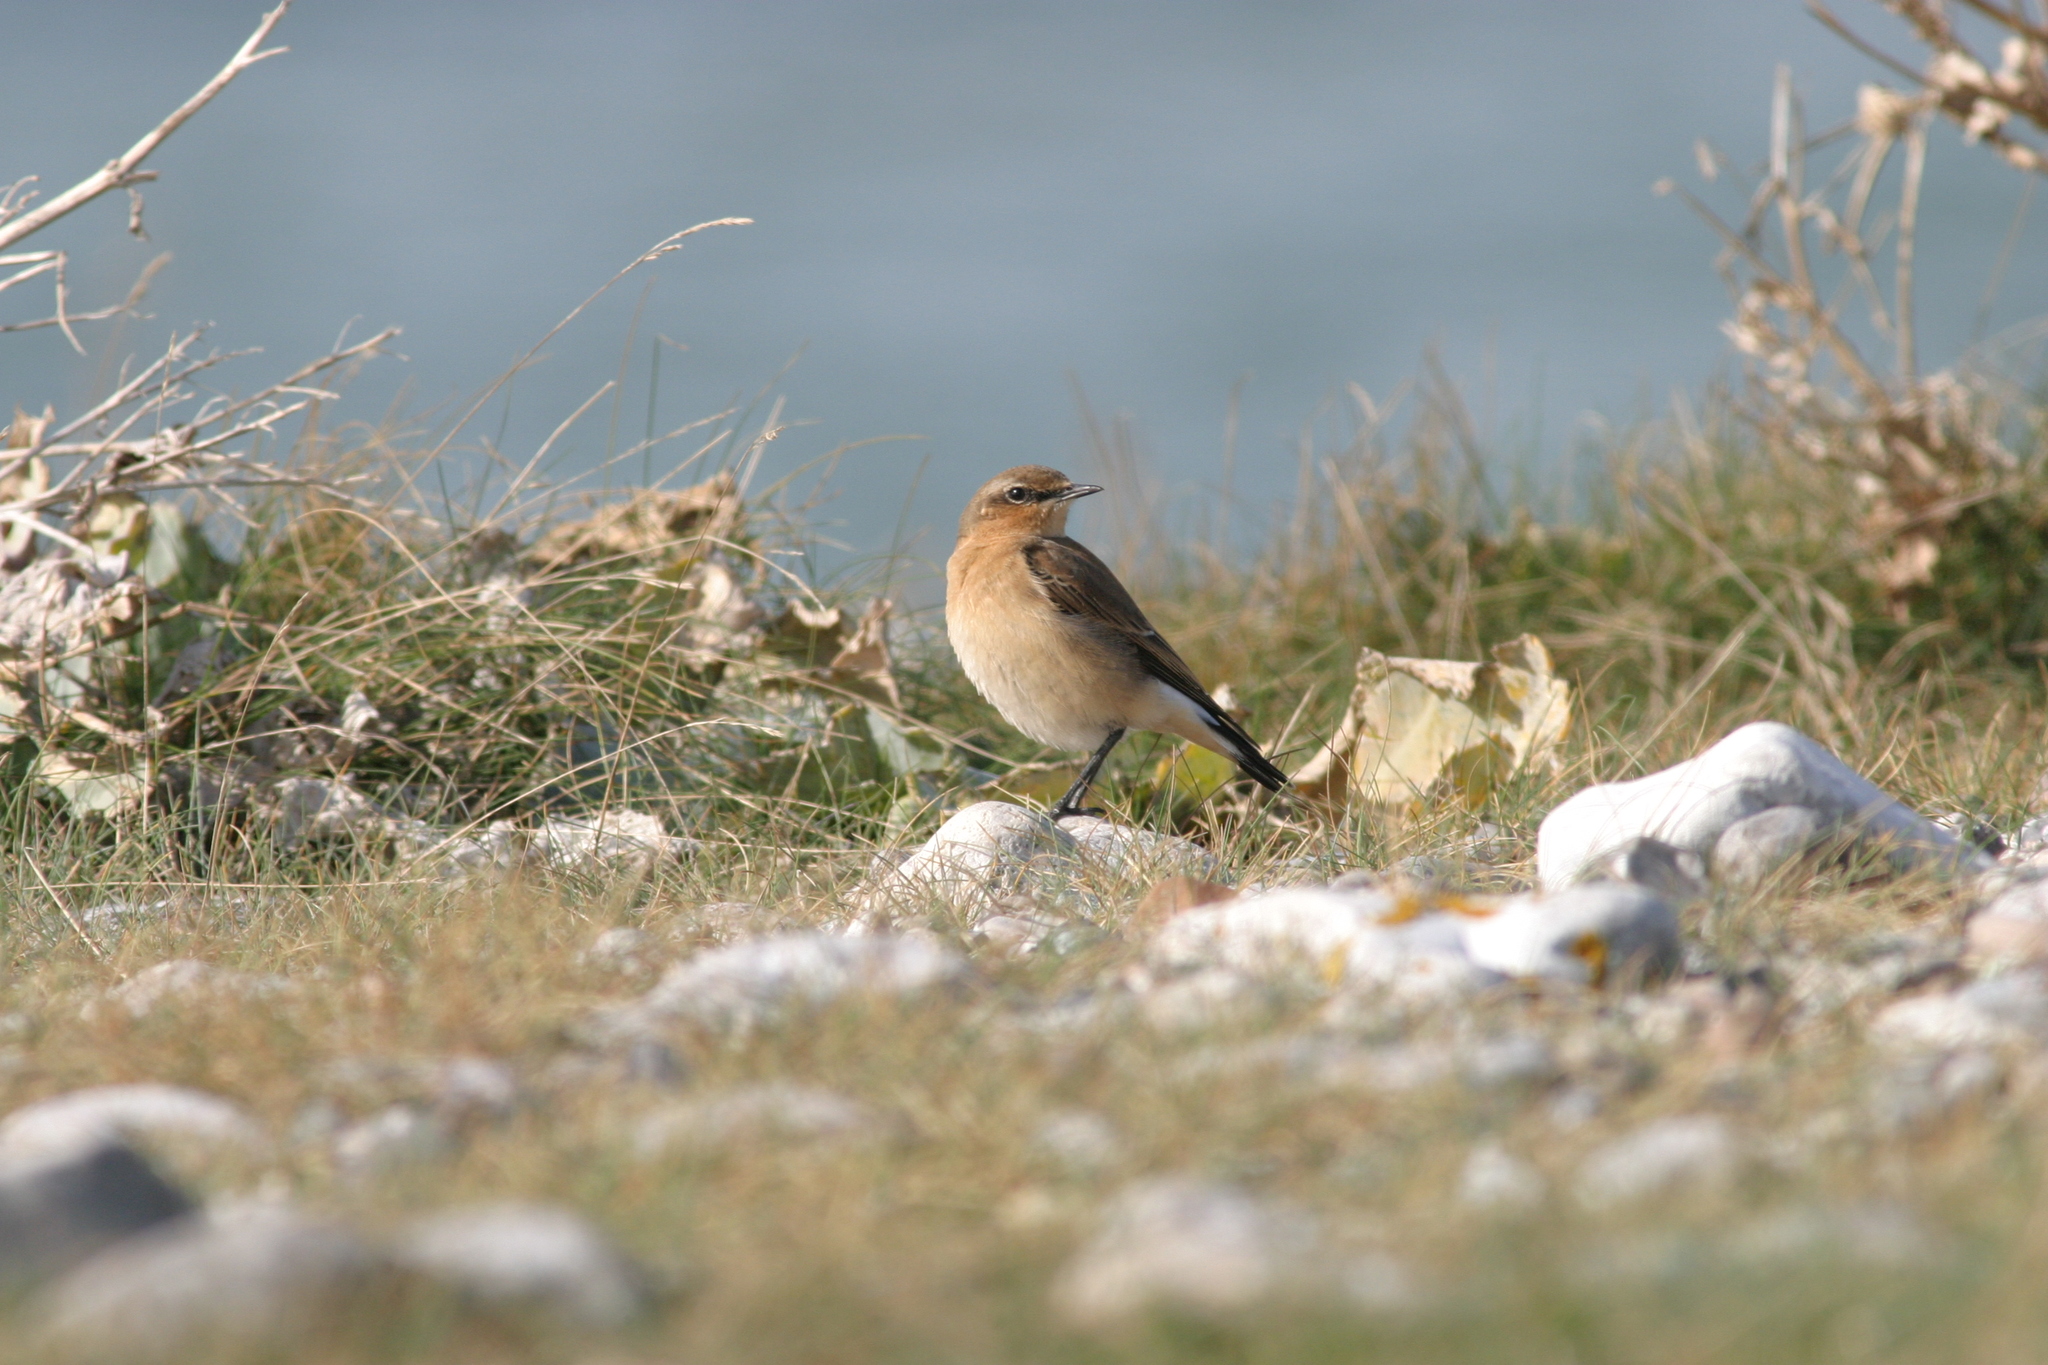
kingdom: Animalia
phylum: Chordata
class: Aves
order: Passeriformes
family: Muscicapidae
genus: Oenanthe
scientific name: Oenanthe oenanthe
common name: Northern wheatear
